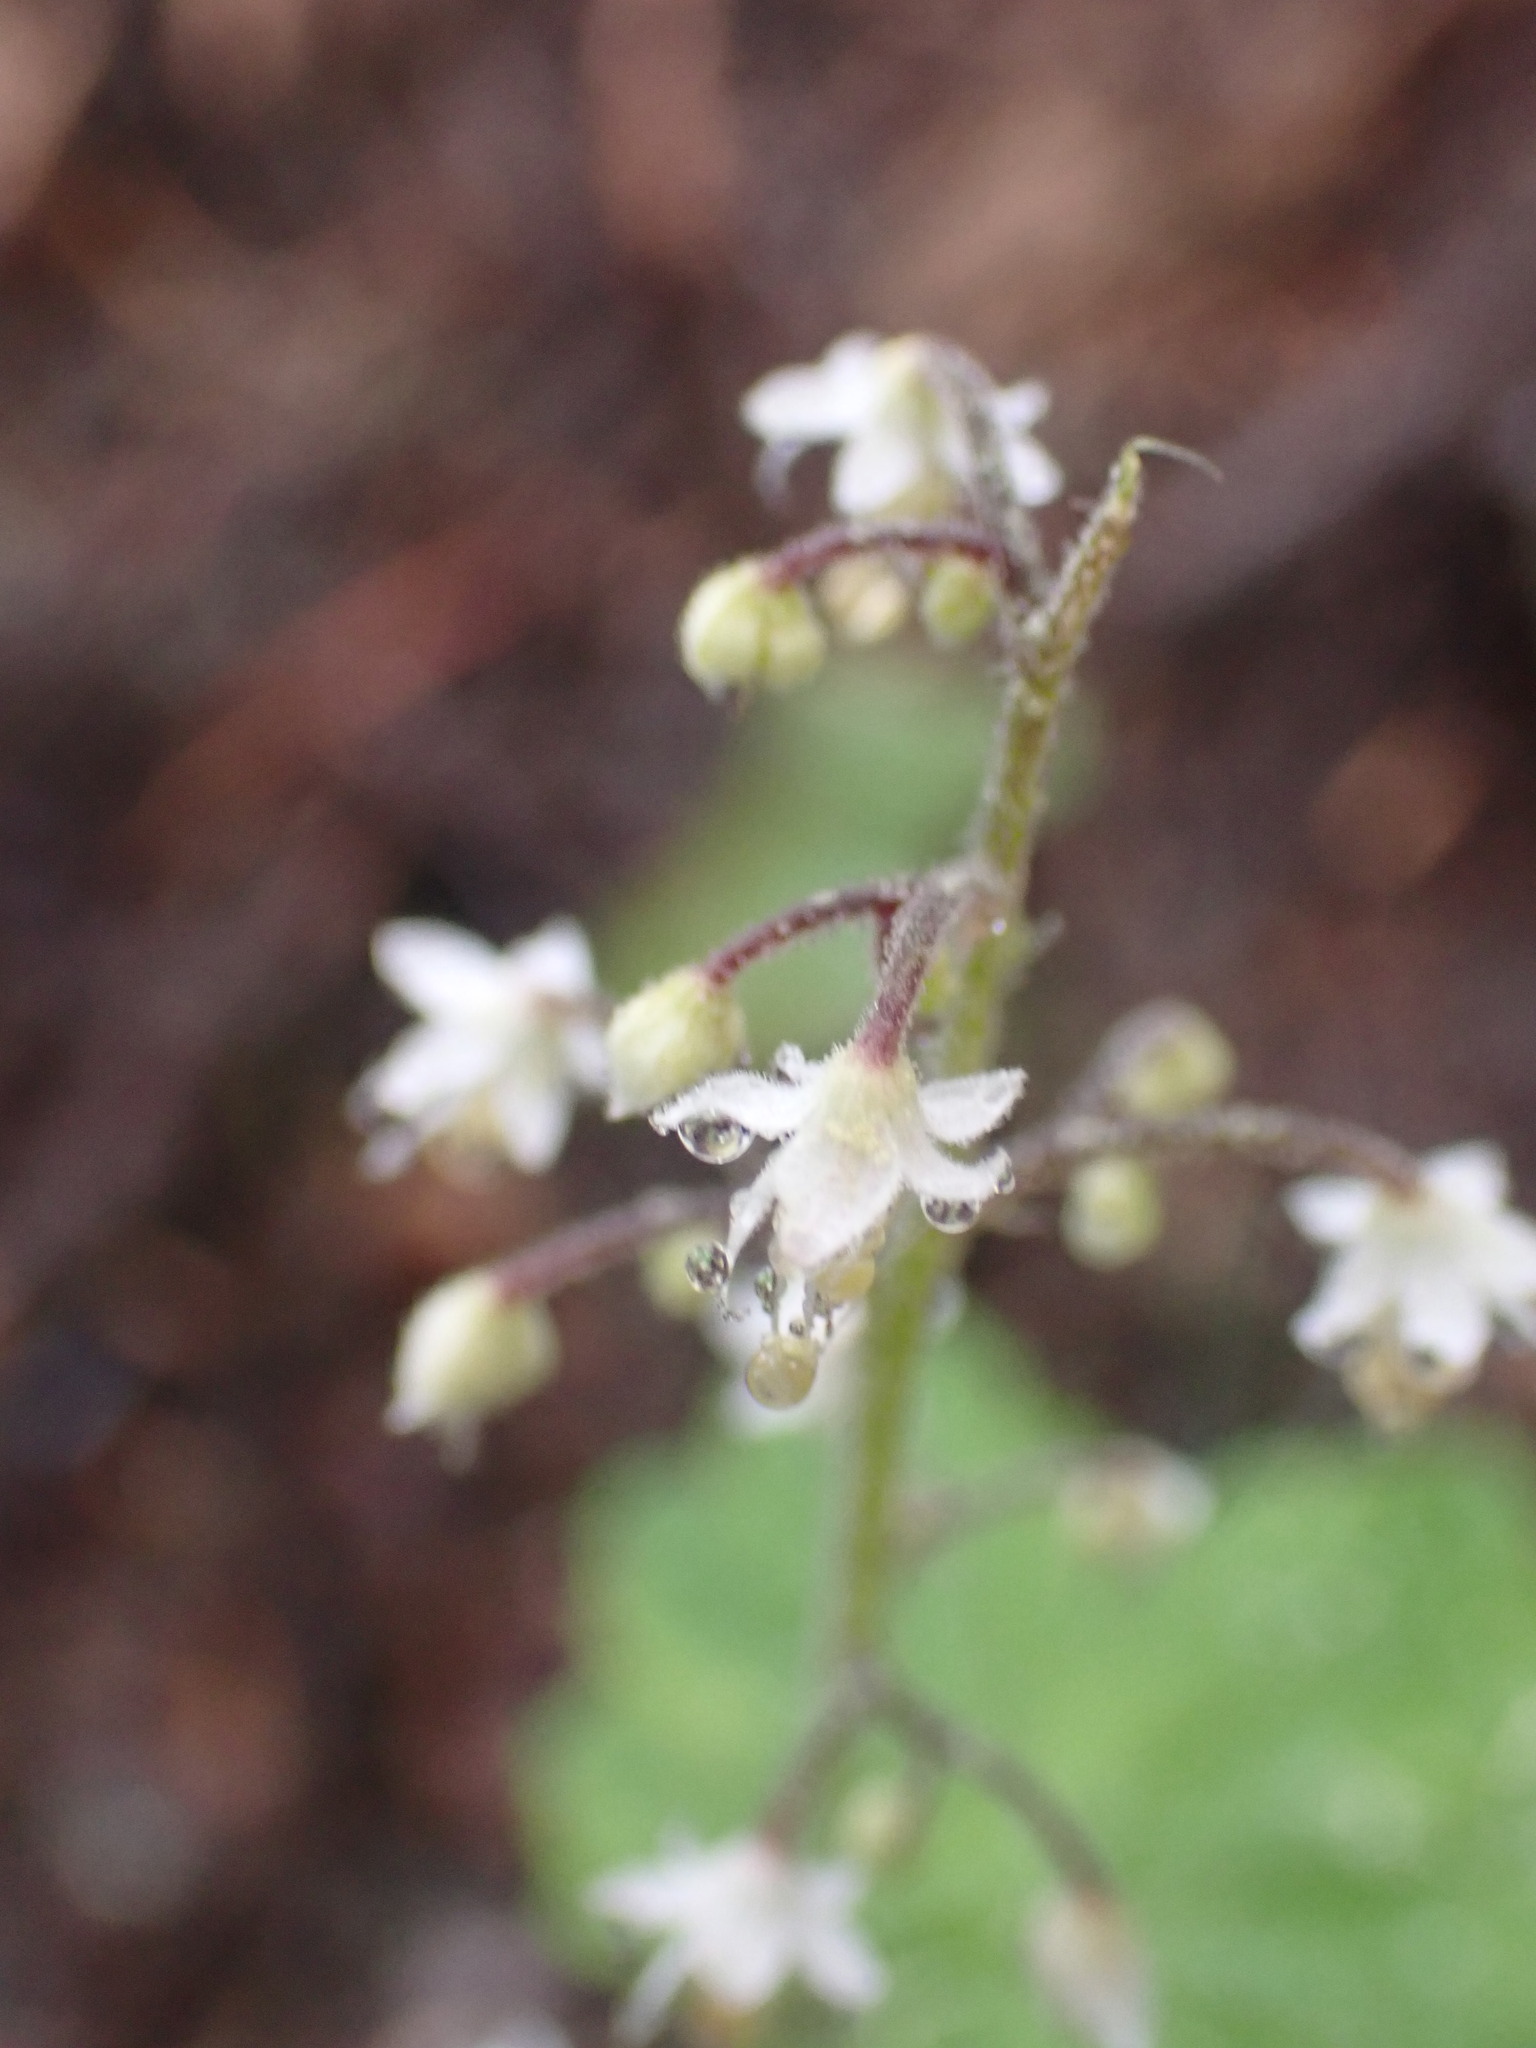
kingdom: Plantae
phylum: Tracheophyta
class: Magnoliopsida
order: Saxifragales
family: Saxifragaceae
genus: Tiarella
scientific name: Tiarella trifoliata
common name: Sugar-scoop
